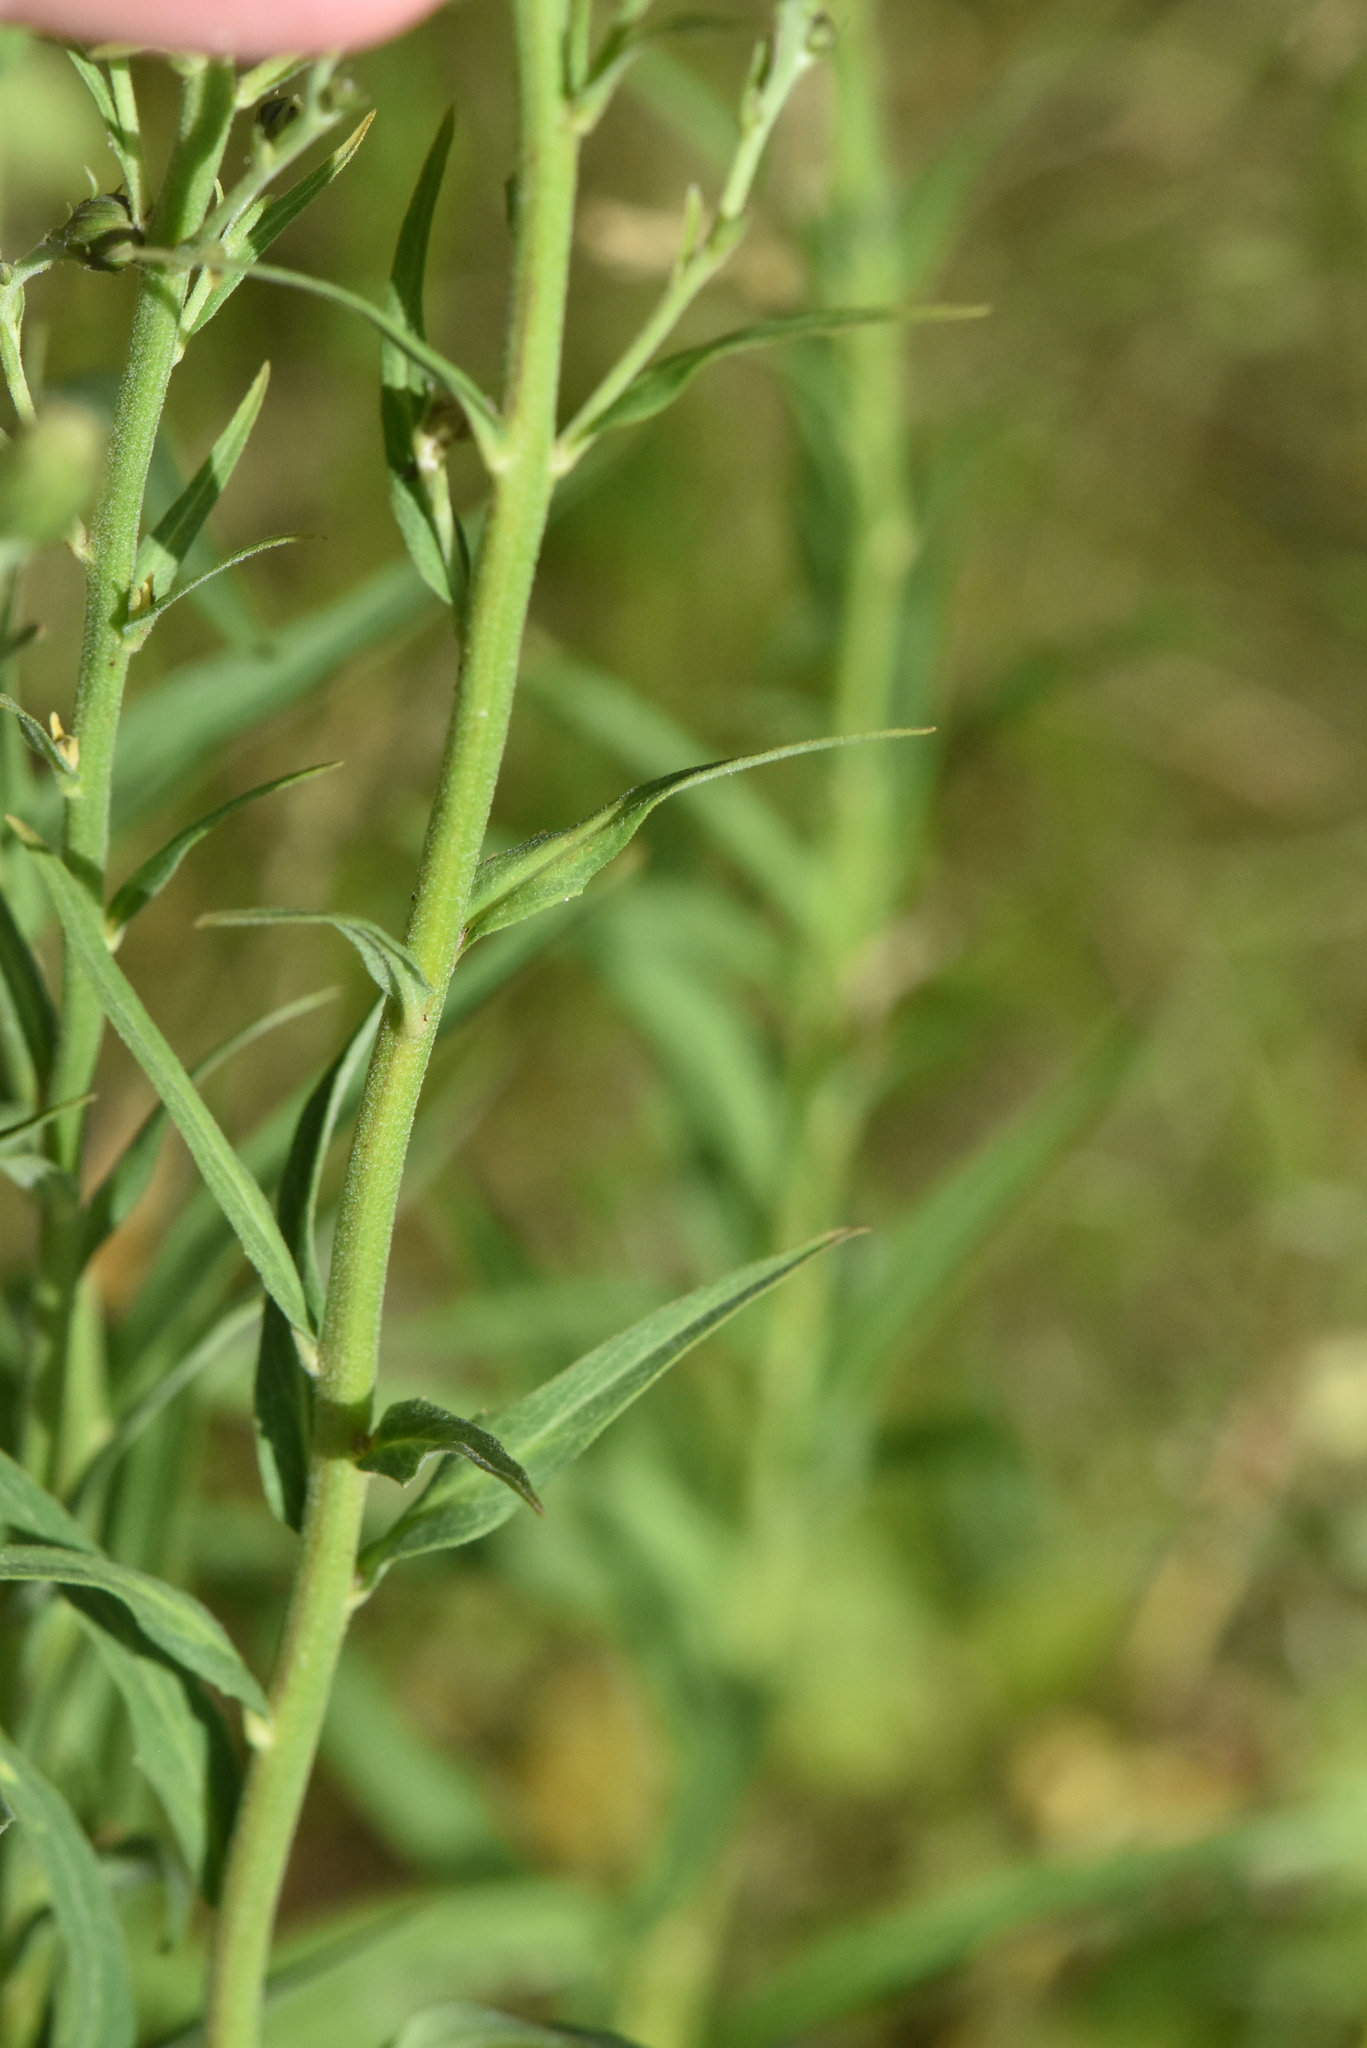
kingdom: Plantae
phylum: Tracheophyta
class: Magnoliopsida
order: Asterales
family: Asteraceae
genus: Hieracium
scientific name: Hieracium umbellatum
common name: Northern hawkweed
